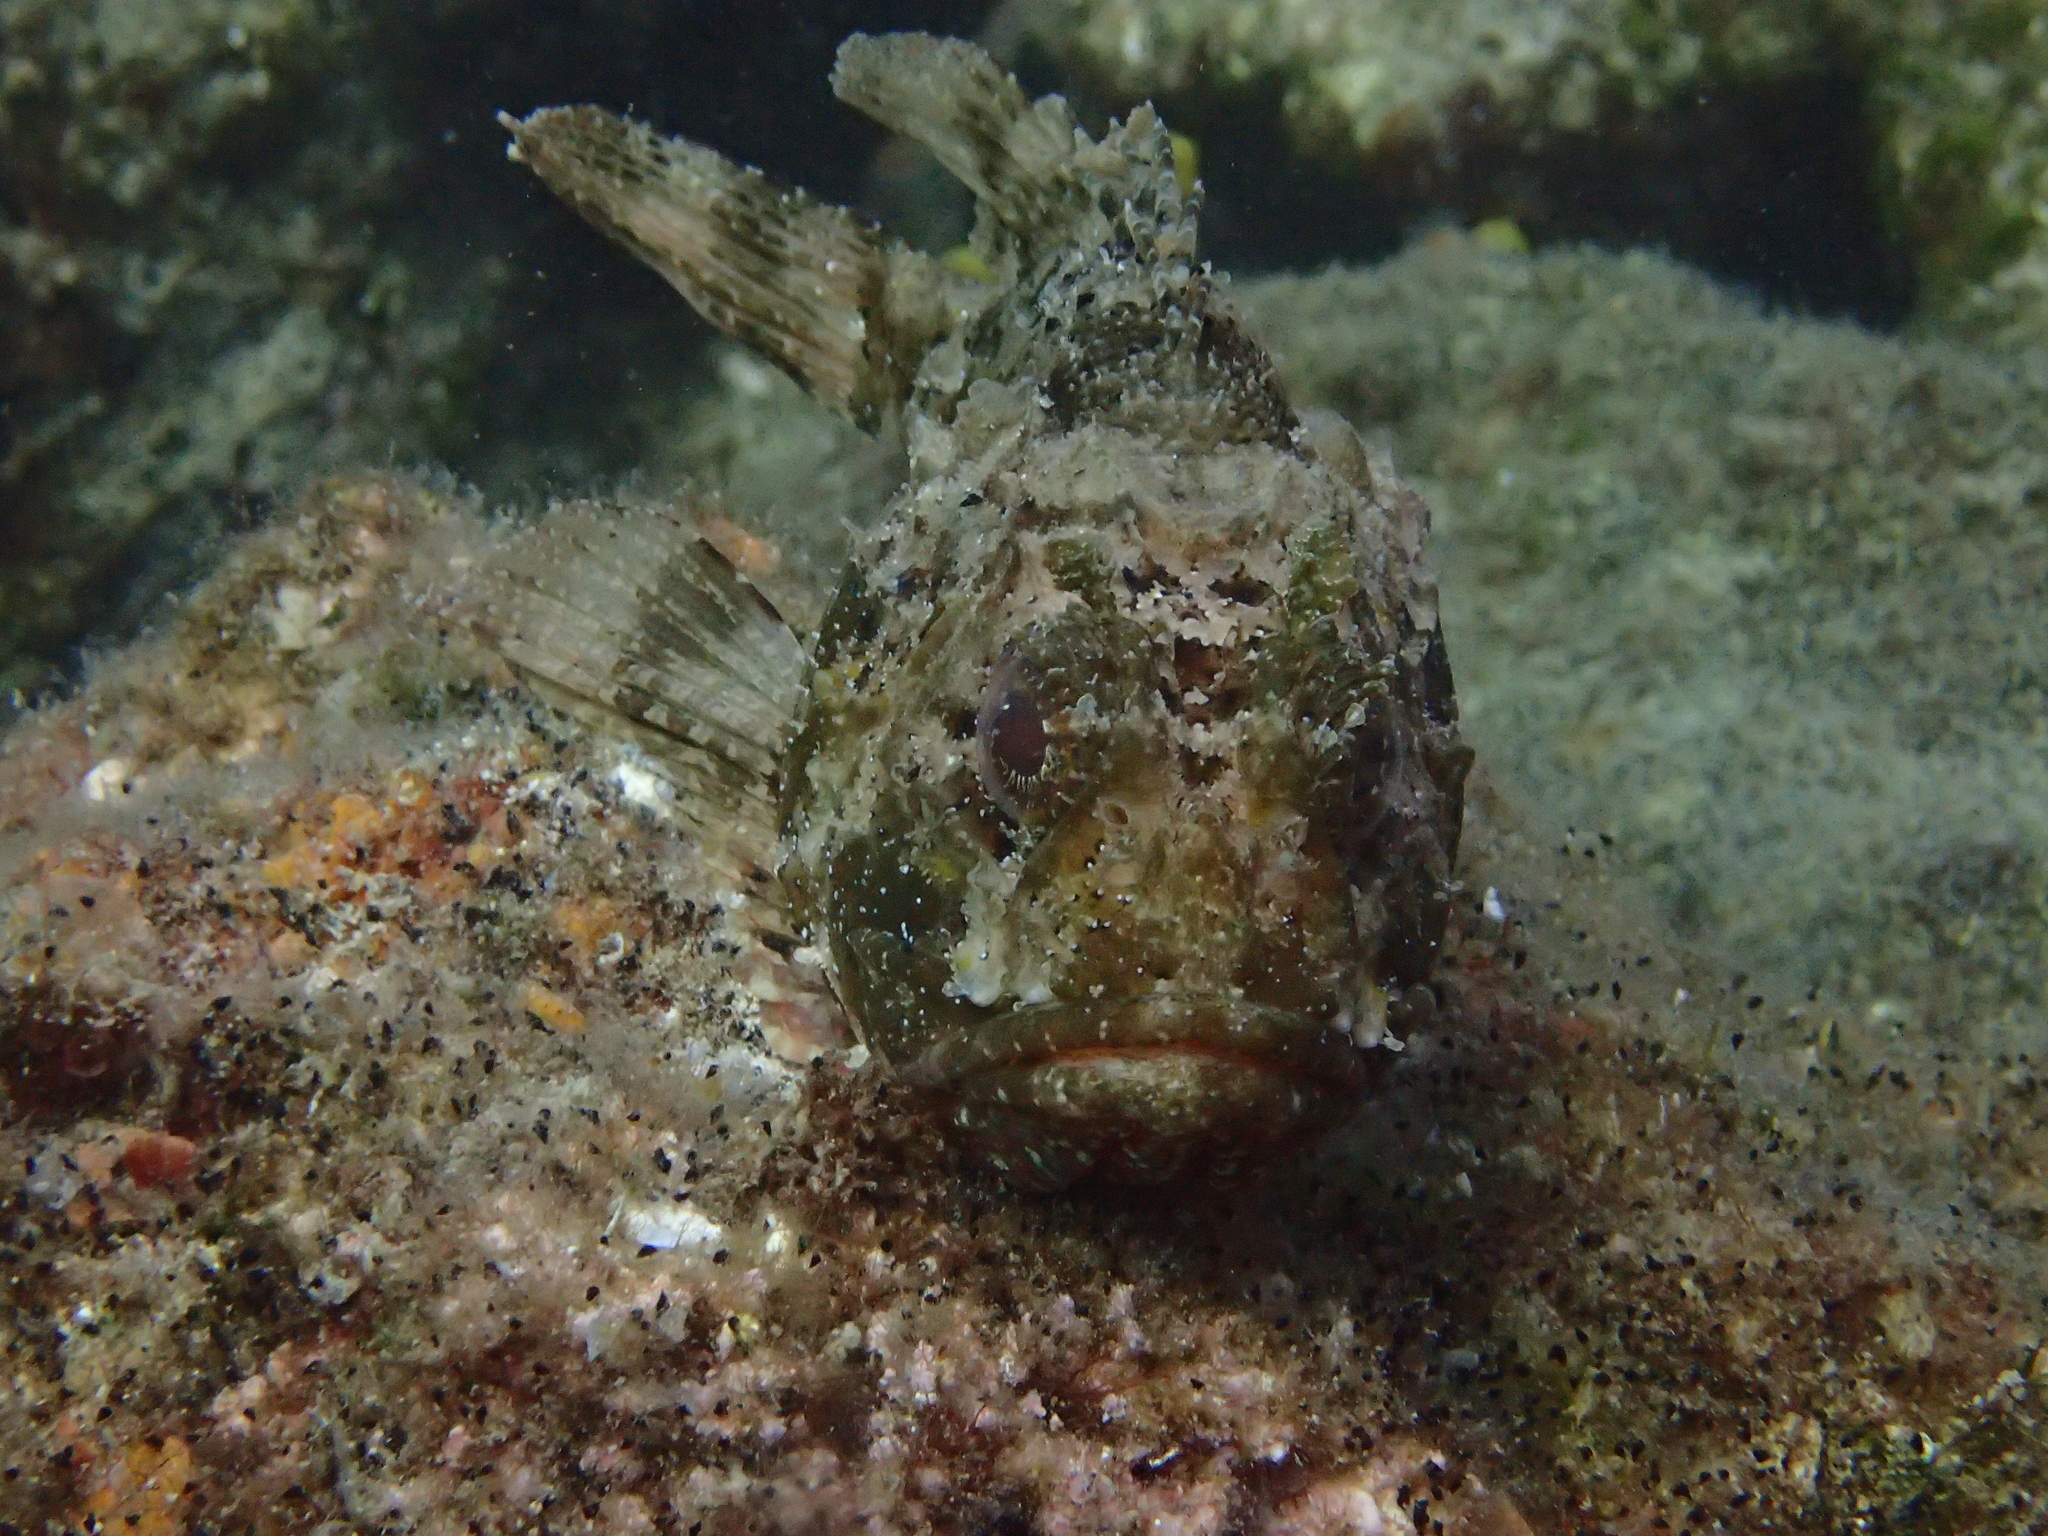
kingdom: Animalia
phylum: Chordata
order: Scorpaeniformes
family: Scorpaenidae
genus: Scorpaena
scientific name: Scorpaena porcus
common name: Black scorpionfish
